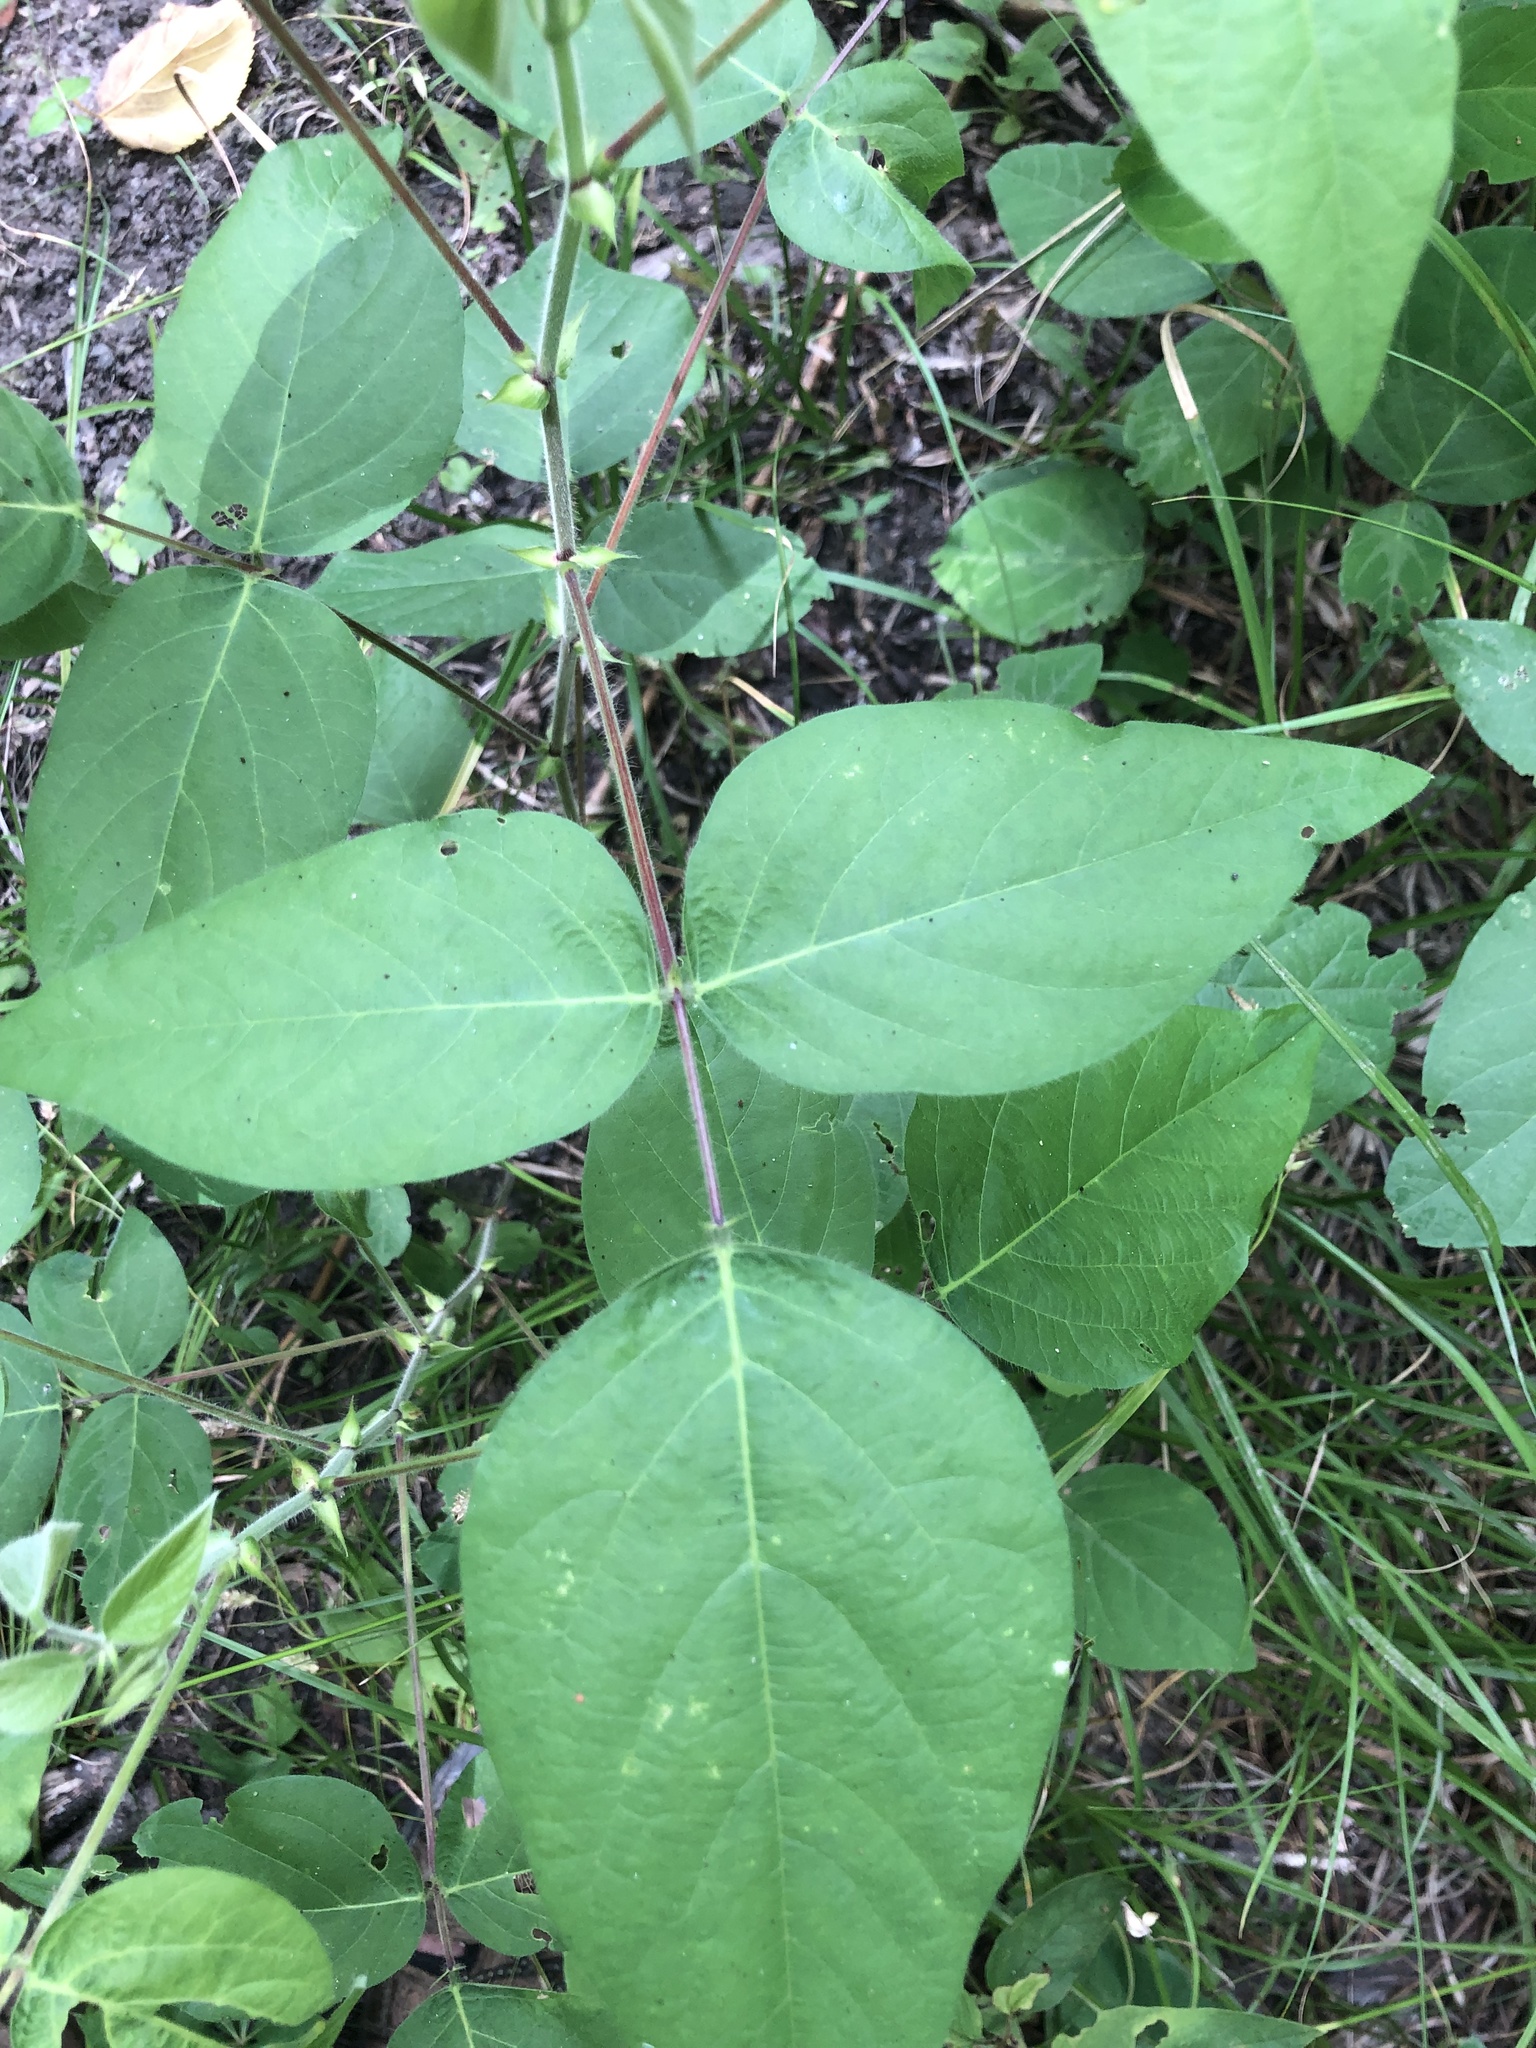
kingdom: Plantae
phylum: Tracheophyta
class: Magnoliopsida
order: Fabales
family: Fabaceae
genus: Desmodium
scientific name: Desmodium canescens
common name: Hoary tick-clover
